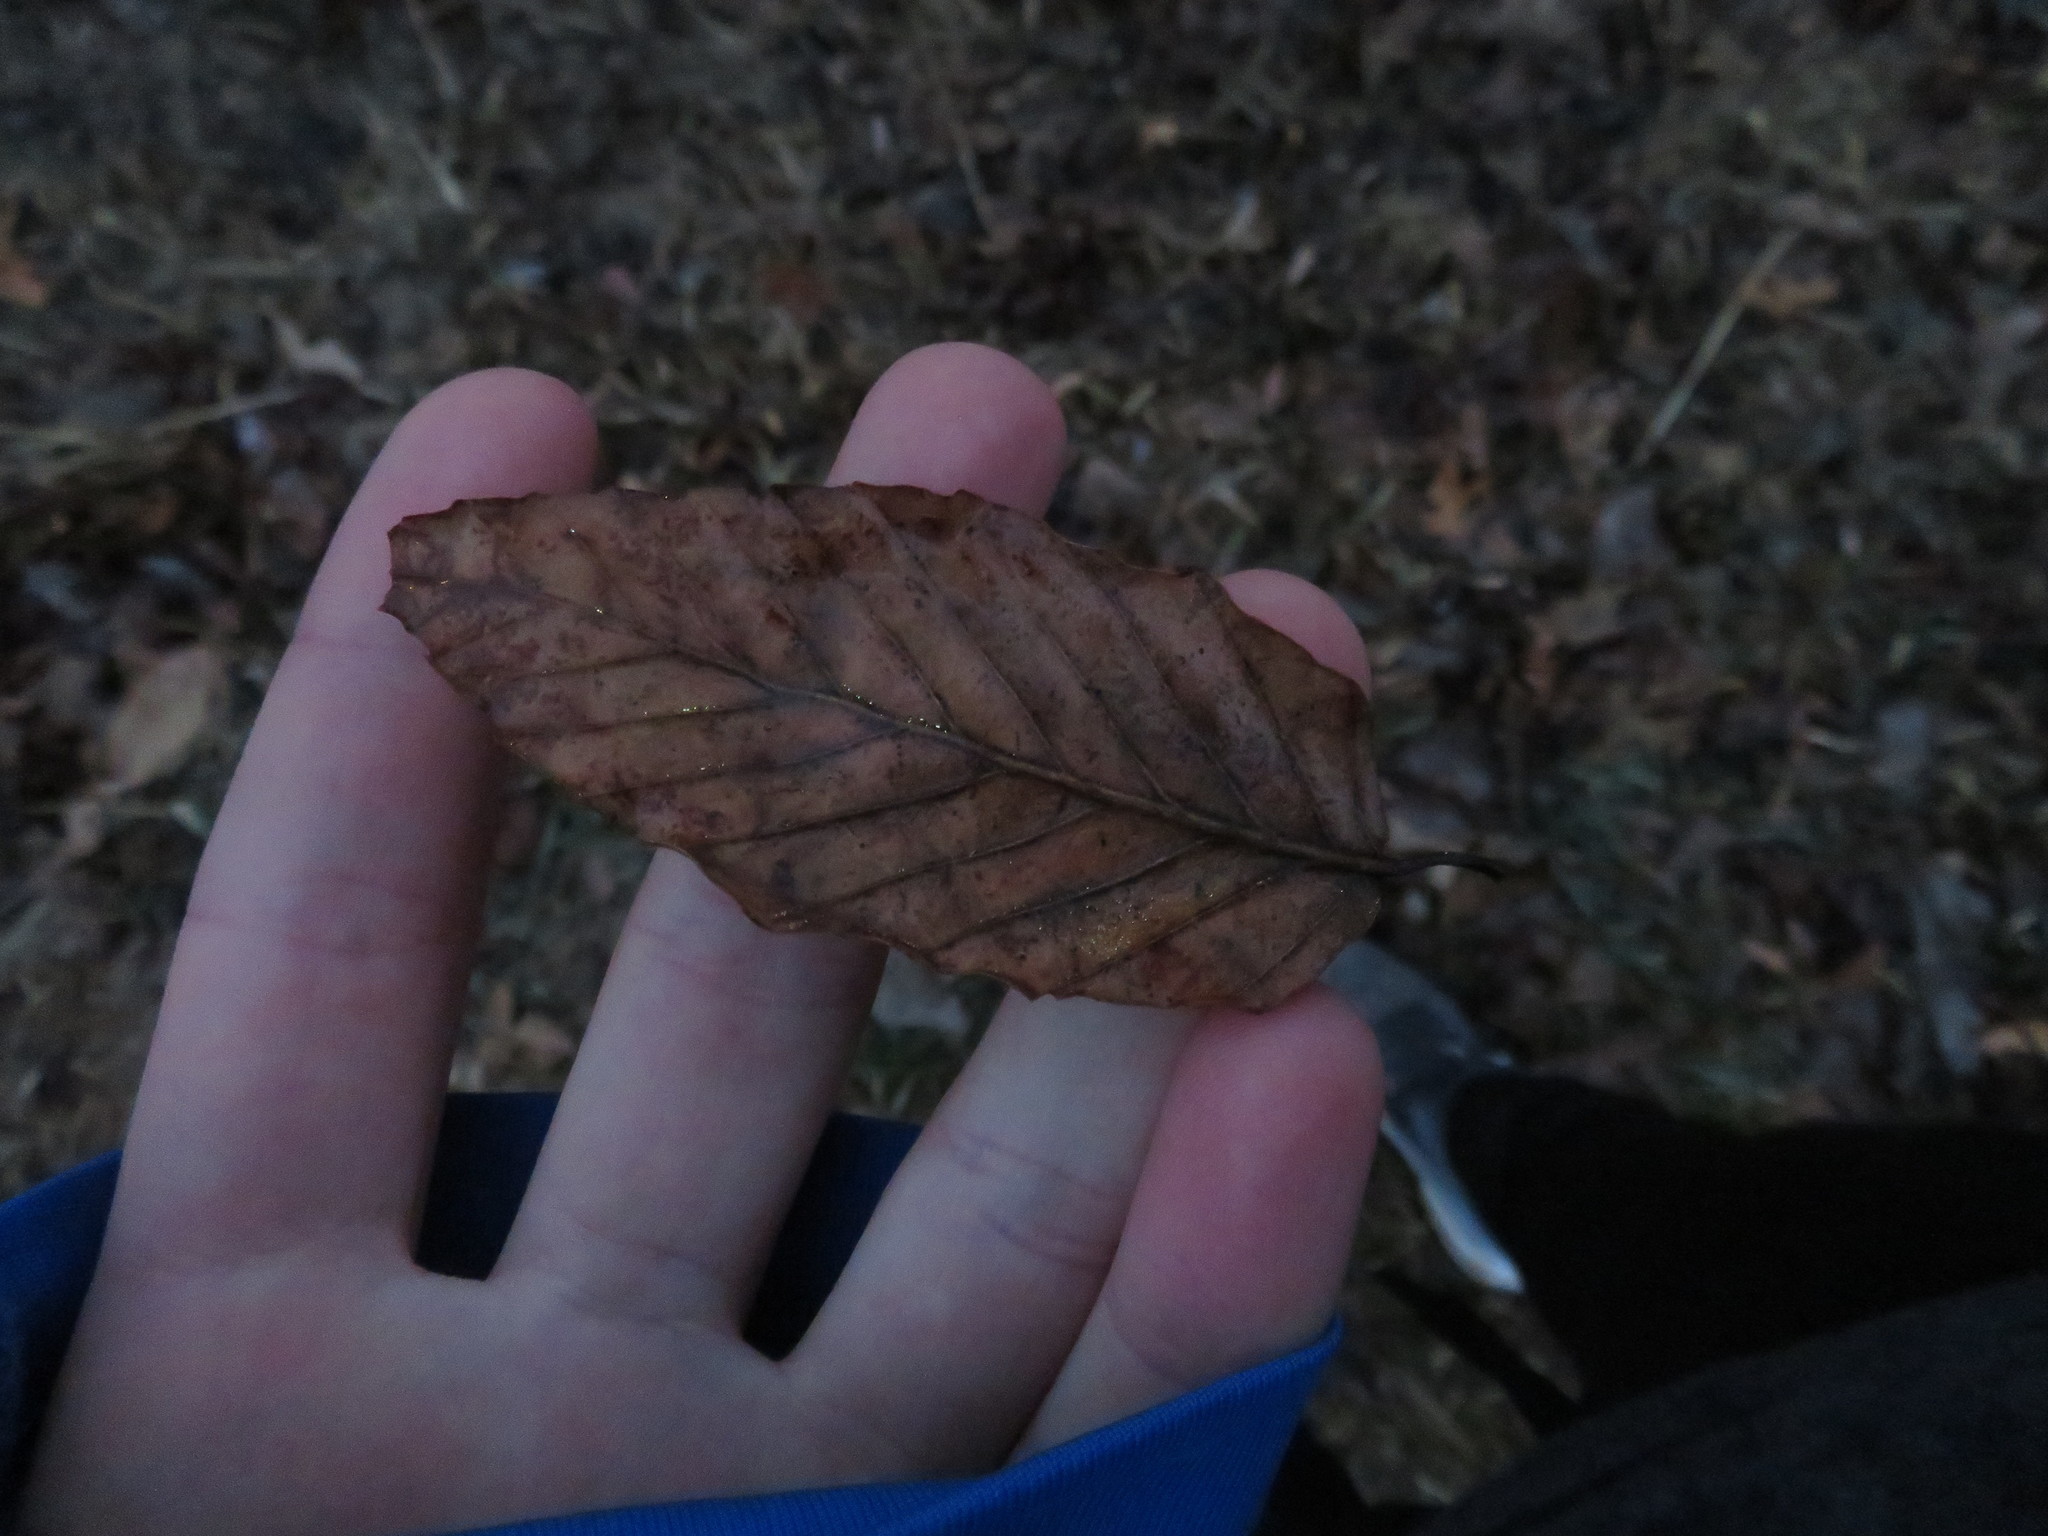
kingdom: Plantae
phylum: Tracheophyta
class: Magnoliopsida
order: Fagales
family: Fagaceae
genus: Fagus
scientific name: Fagus grandifolia
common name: American beech
